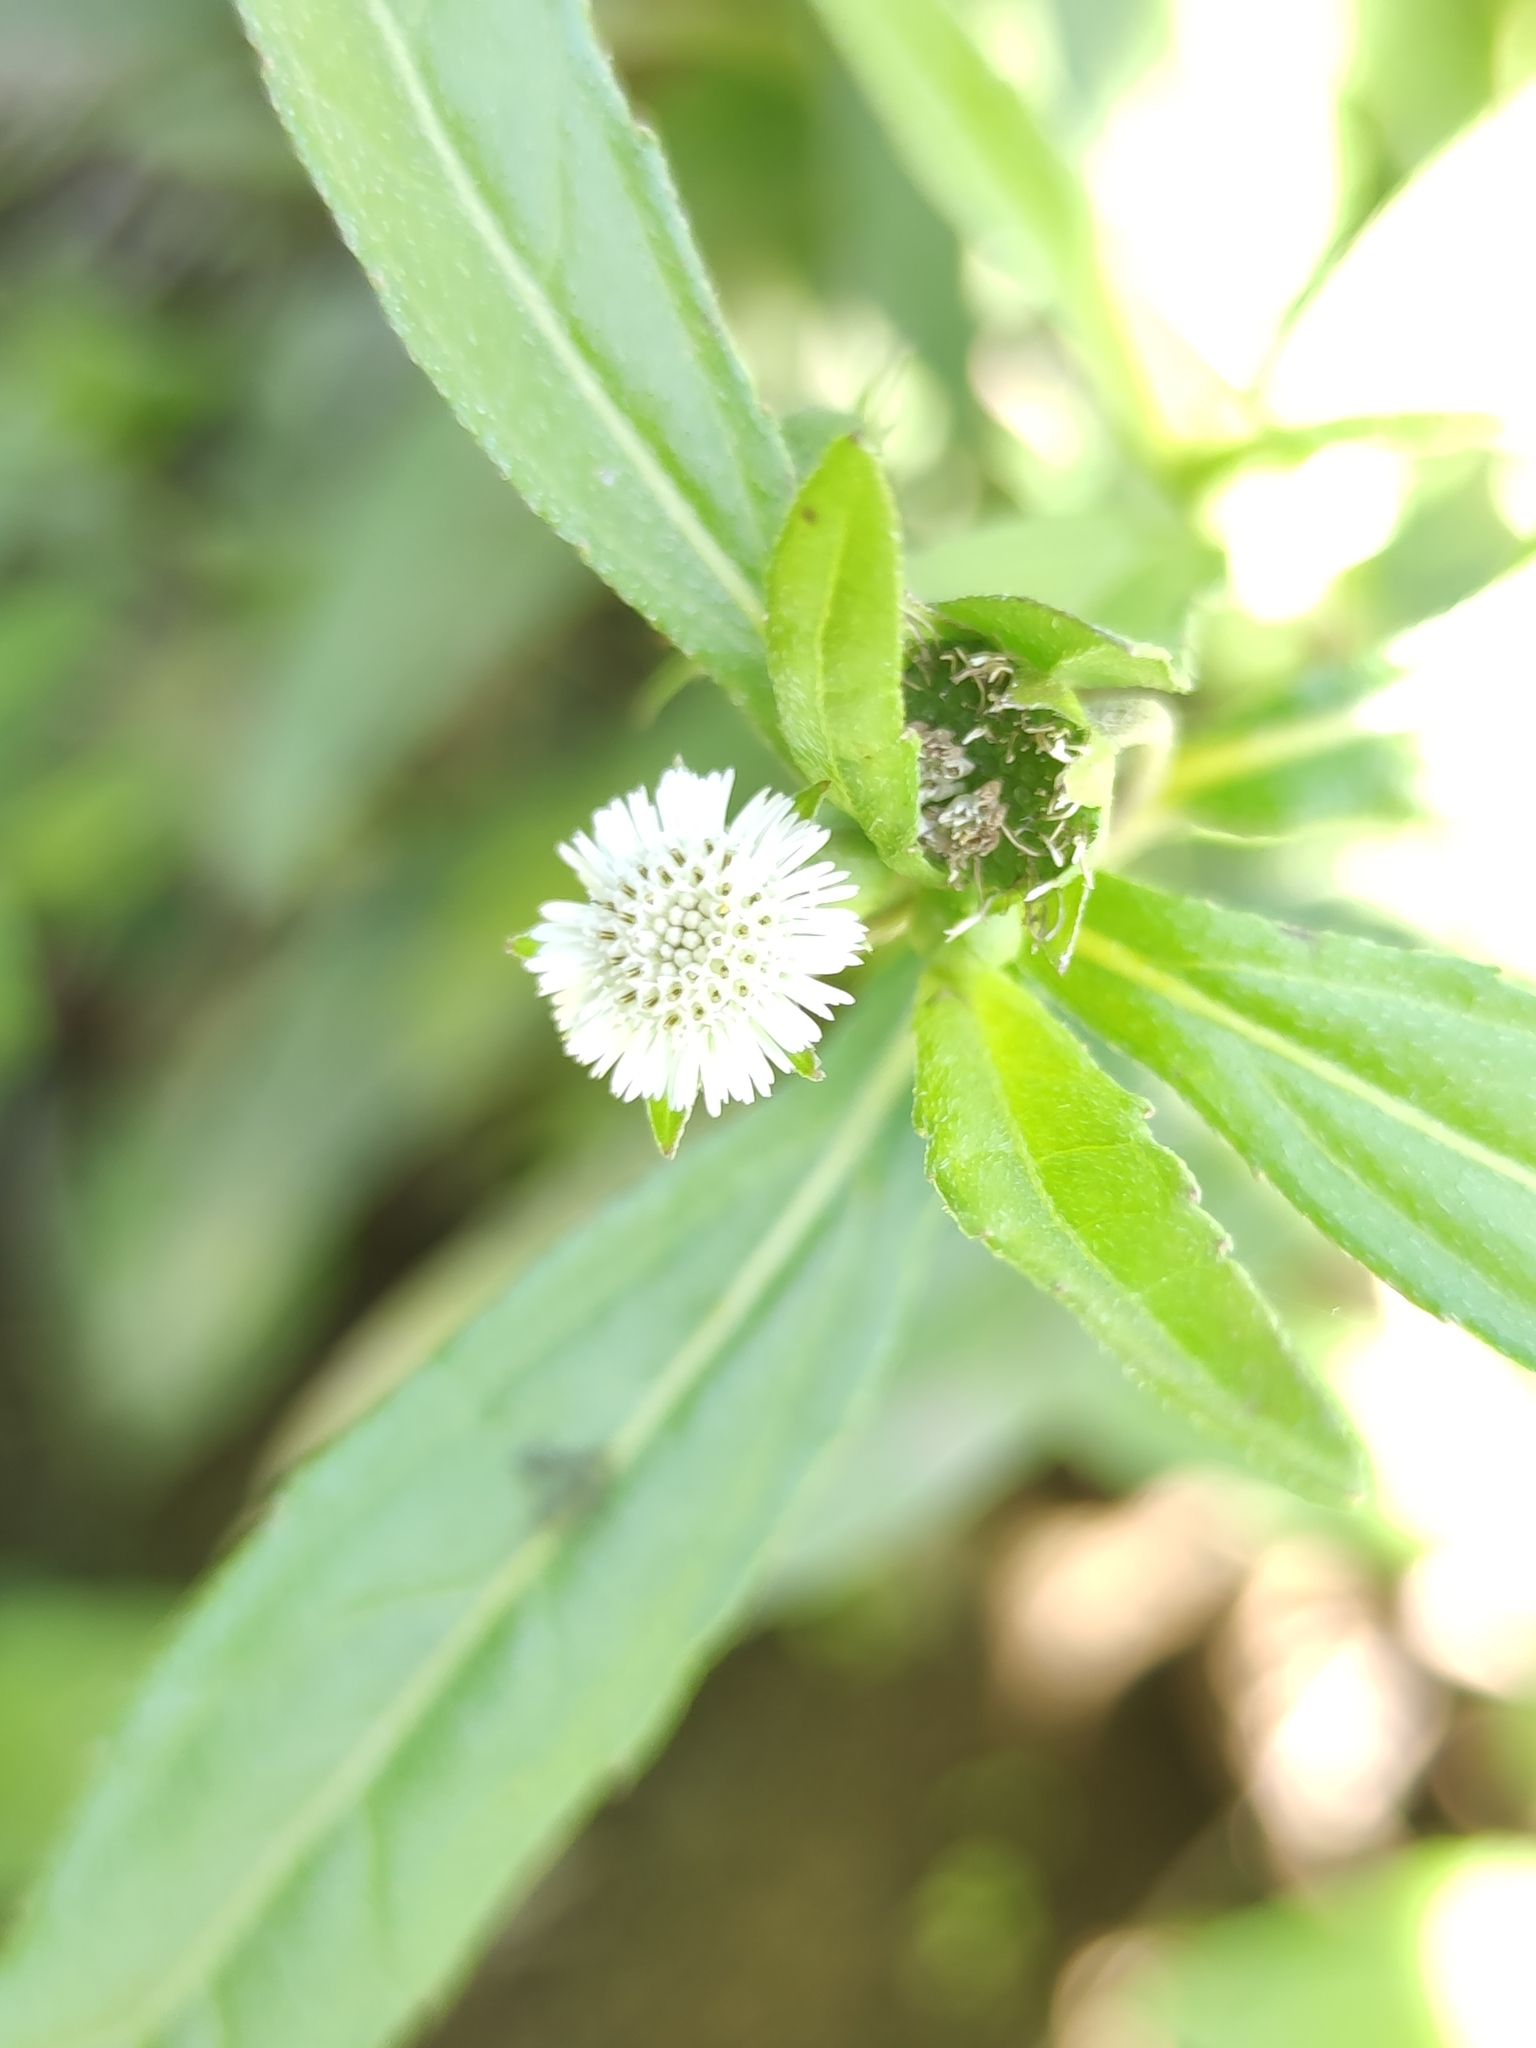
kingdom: Plantae
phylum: Tracheophyta
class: Magnoliopsida
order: Asterales
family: Asteraceae
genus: Eclipta
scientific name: Eclipta prostrata
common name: False daisy
